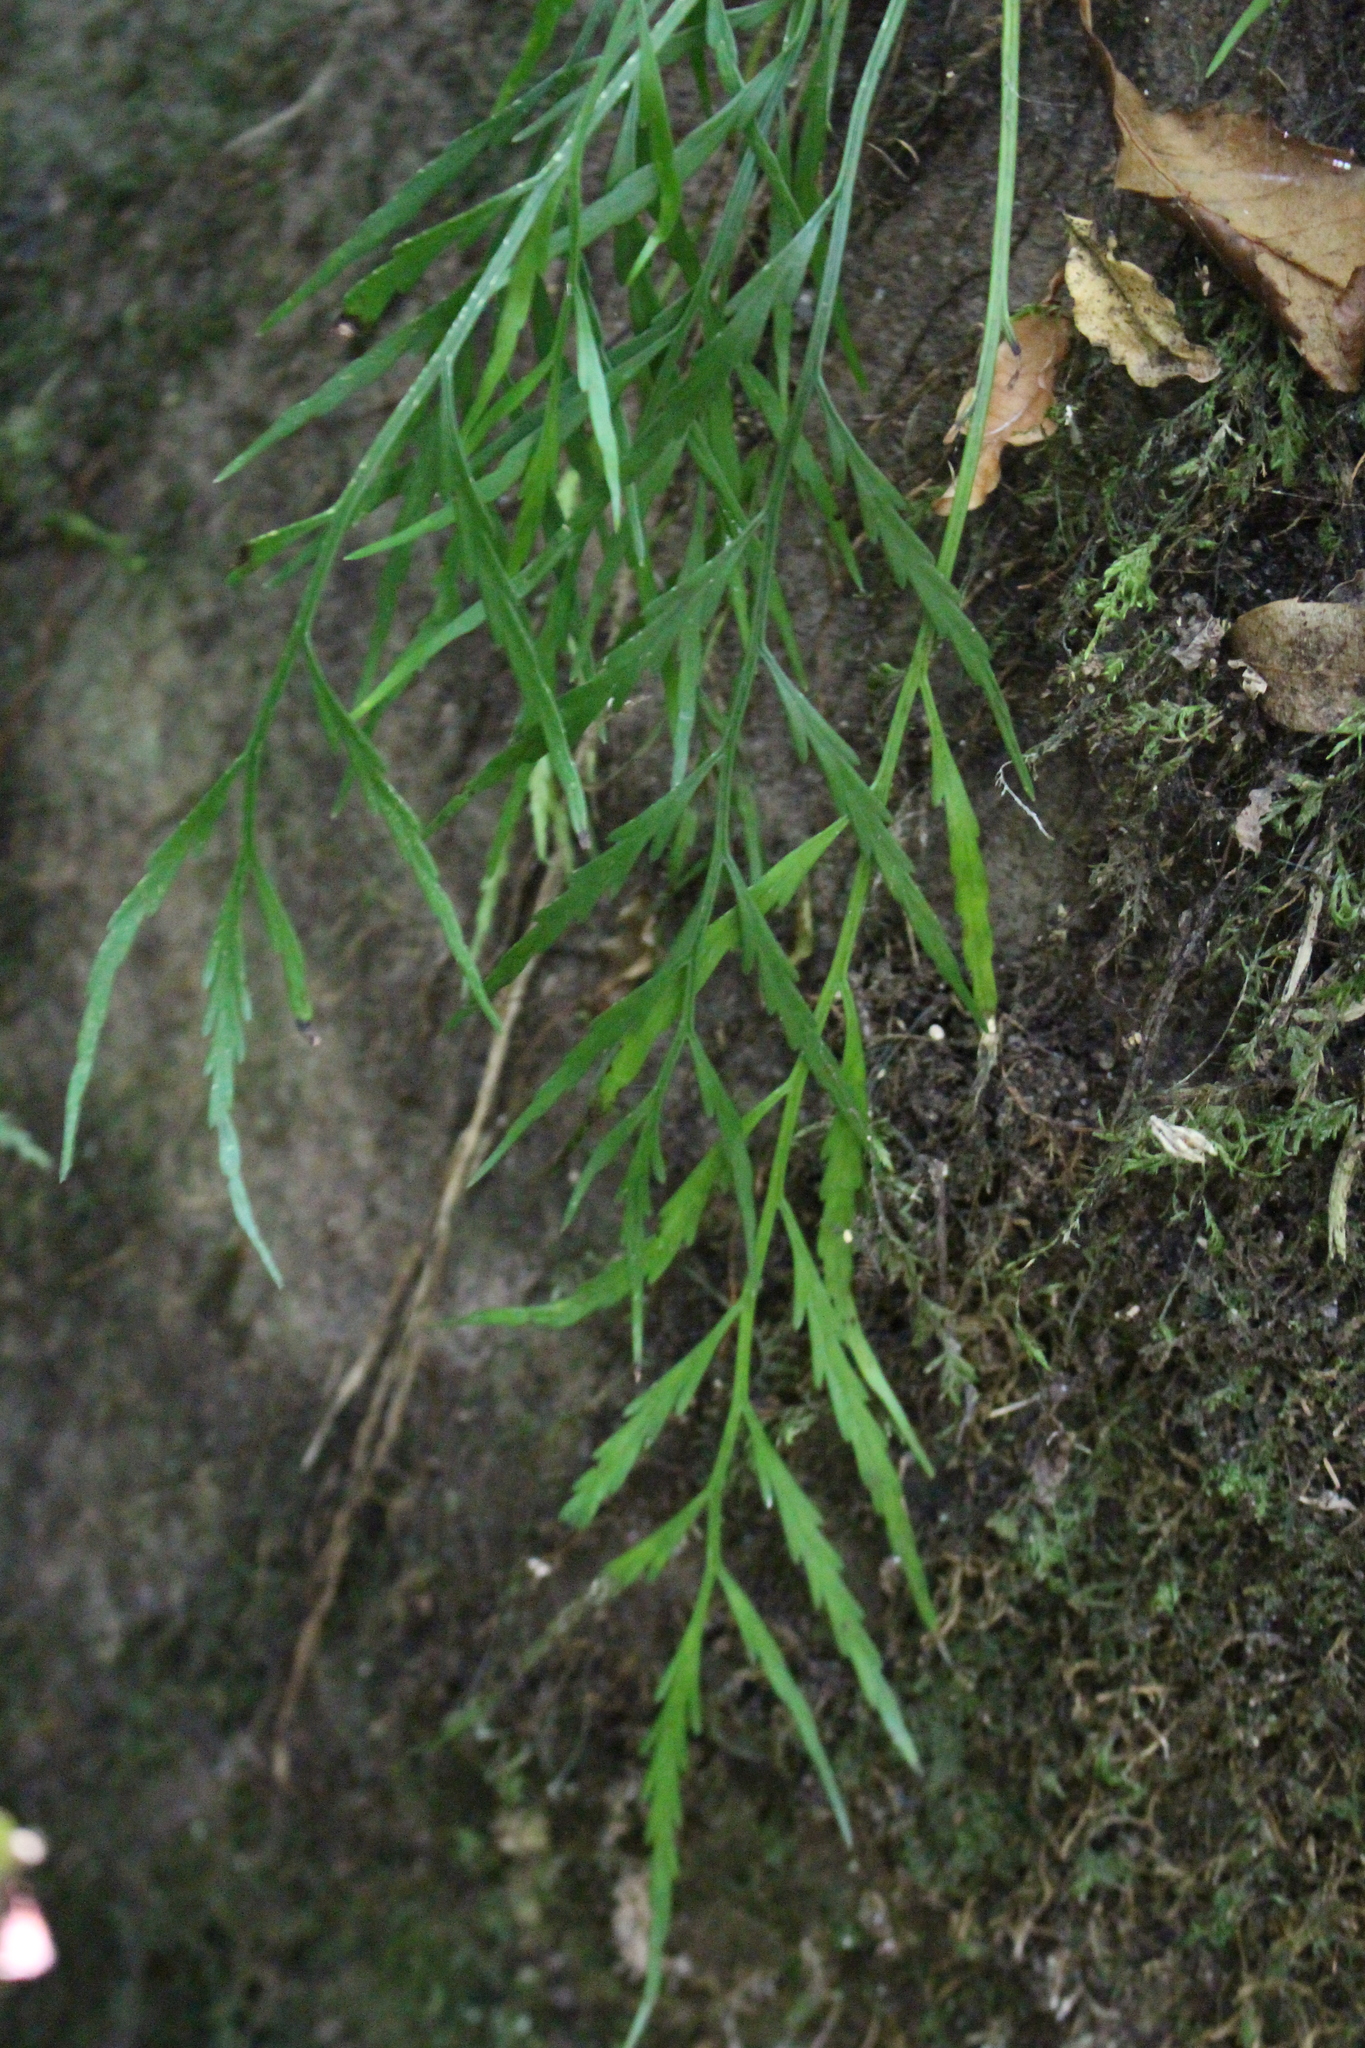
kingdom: Plantae
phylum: Tracheophyta
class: Polypodiopsida
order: Polypodiales
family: Aspleniaceae
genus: Asplenium
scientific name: Asplenium flaccidum
